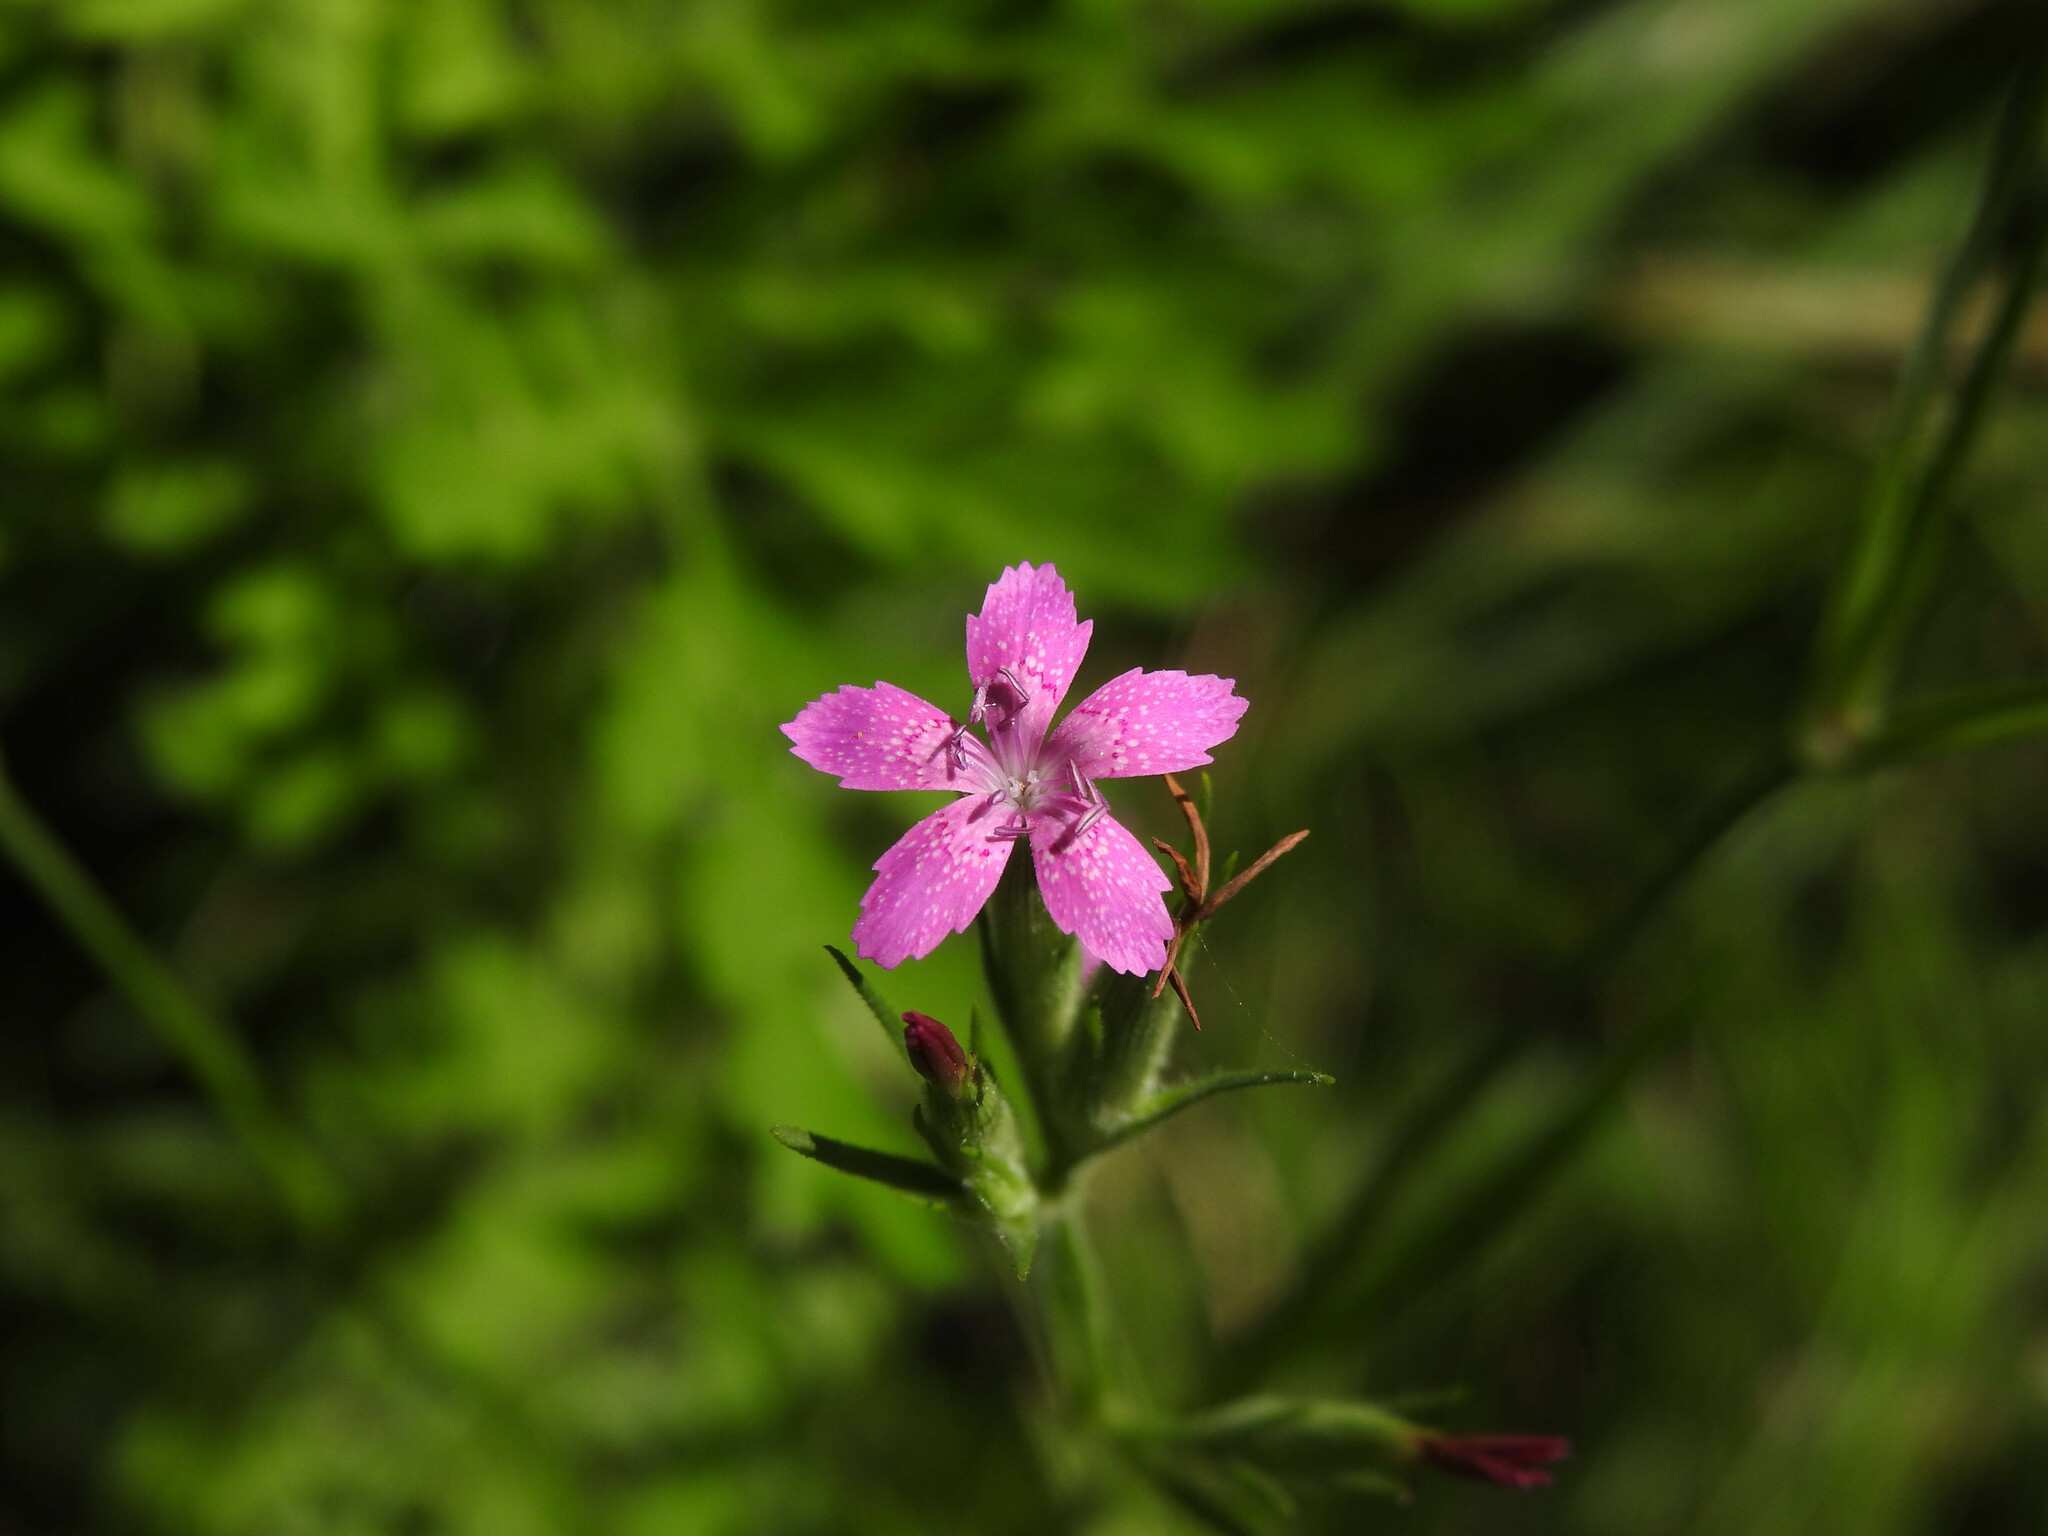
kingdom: Plantae
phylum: Tracheophyta
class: Magnoliopsida
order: Caryophyllales
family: Caryophyllaceae
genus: Dianthus
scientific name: Dianthus armeria
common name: Deptford pink
